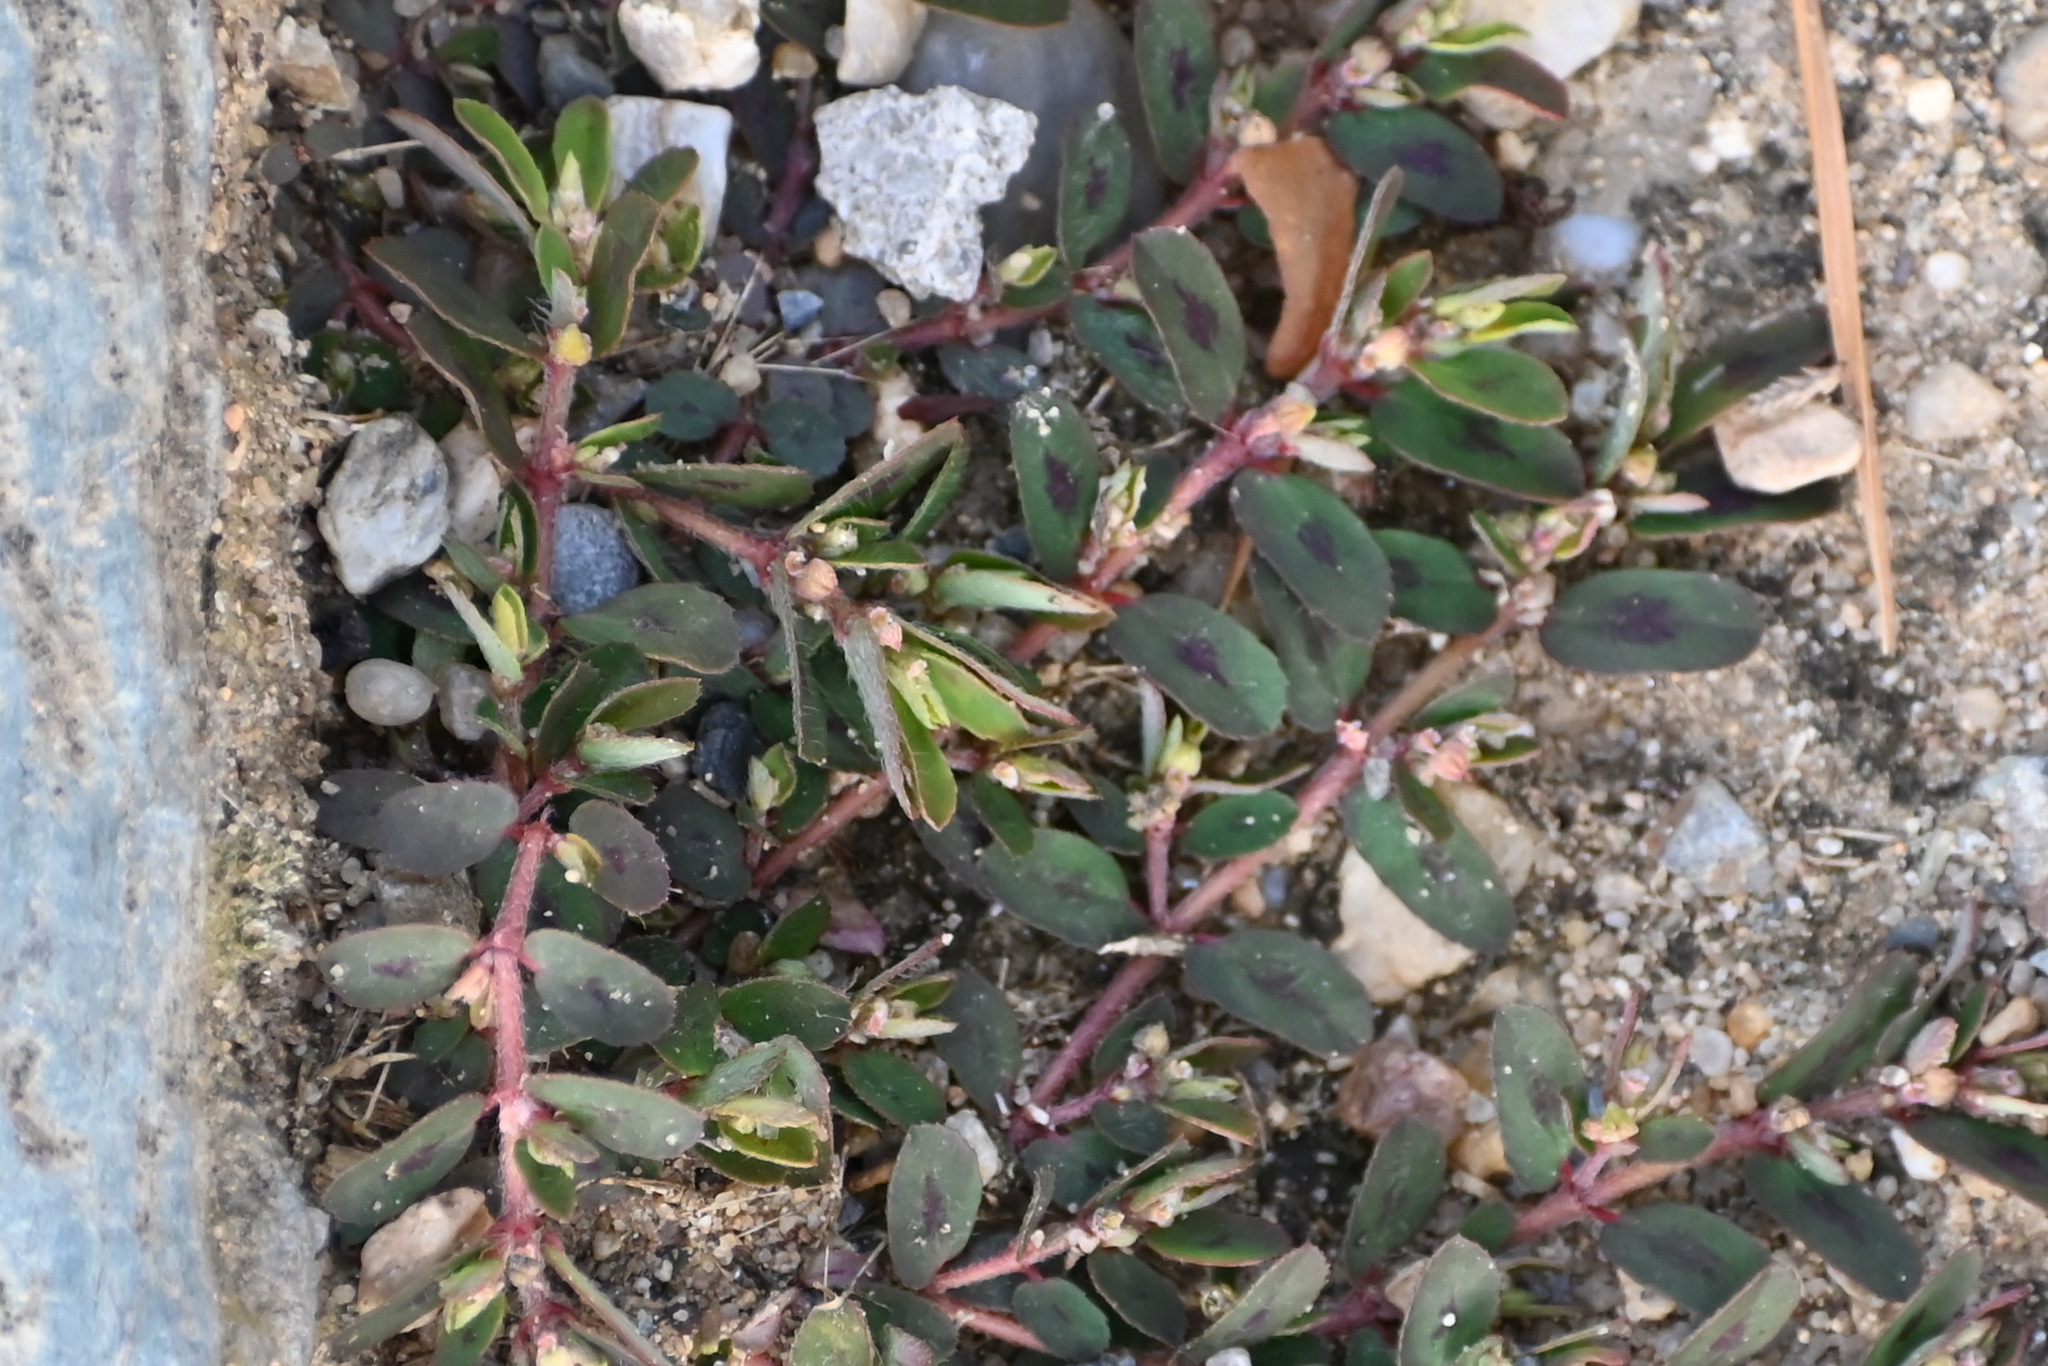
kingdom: Plantae
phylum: Tracheophyta
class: Magnoliopsida
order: Malpighiales
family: Euphorbiaceae
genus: Euphorbia
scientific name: Euphorbia maculata
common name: Spotted spurge
